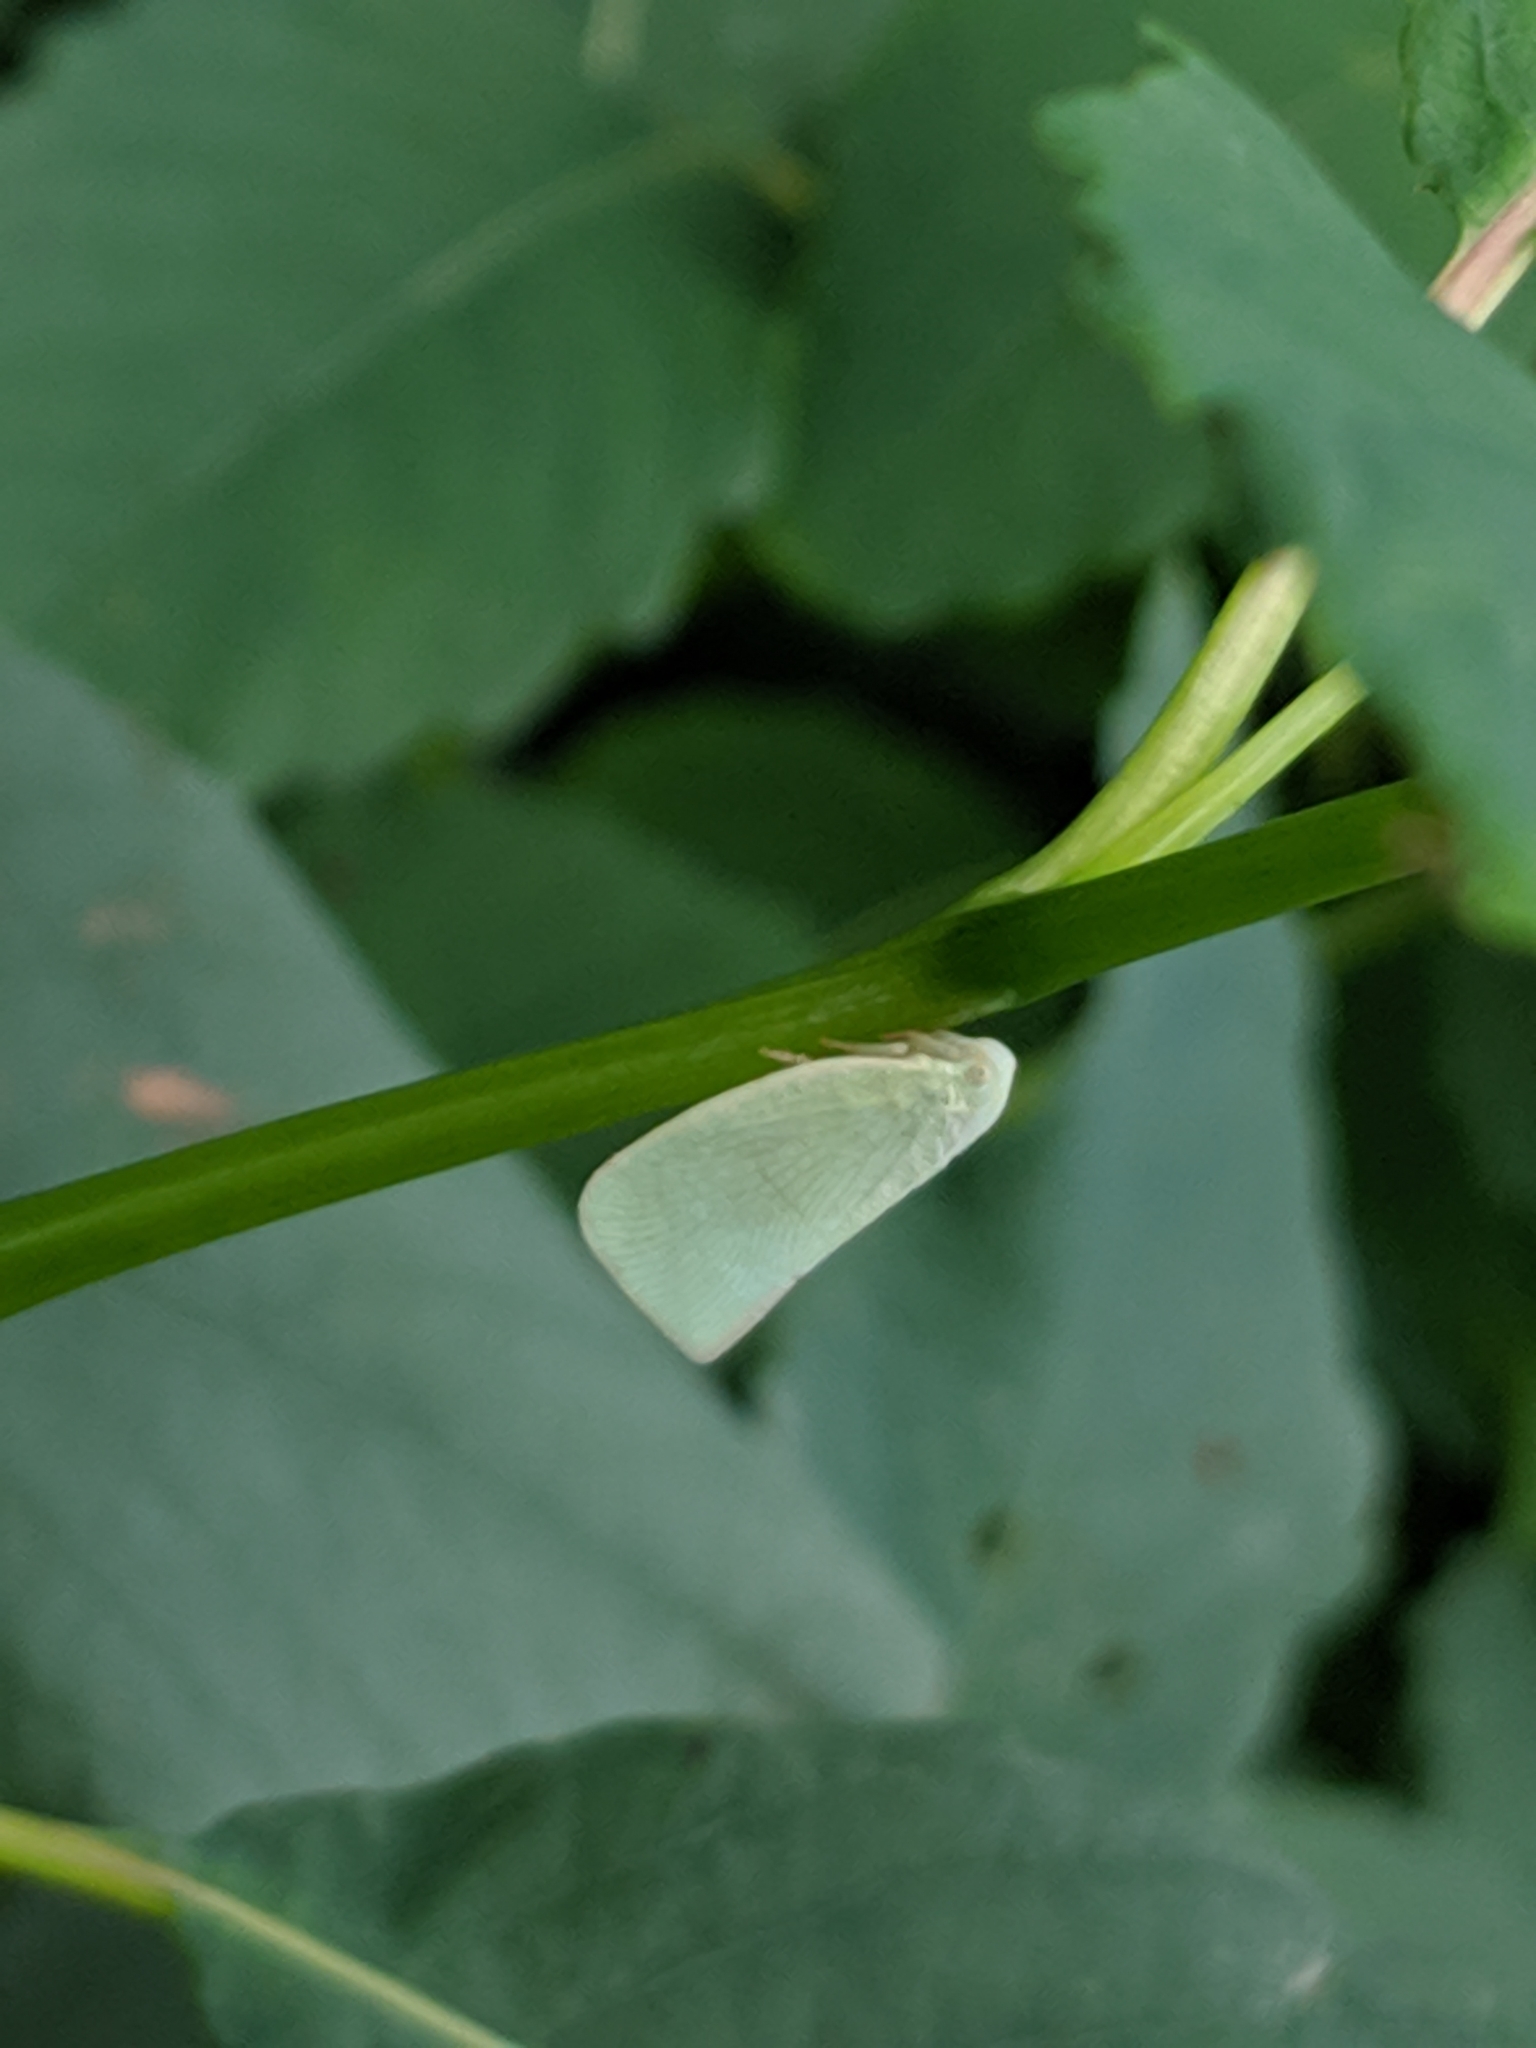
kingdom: Animalia
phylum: Arthropoda
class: Insecta
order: Hemiptera
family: Flatidae
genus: Flatormenis
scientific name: Flatormenis proxima
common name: Northern flatid planthopper
